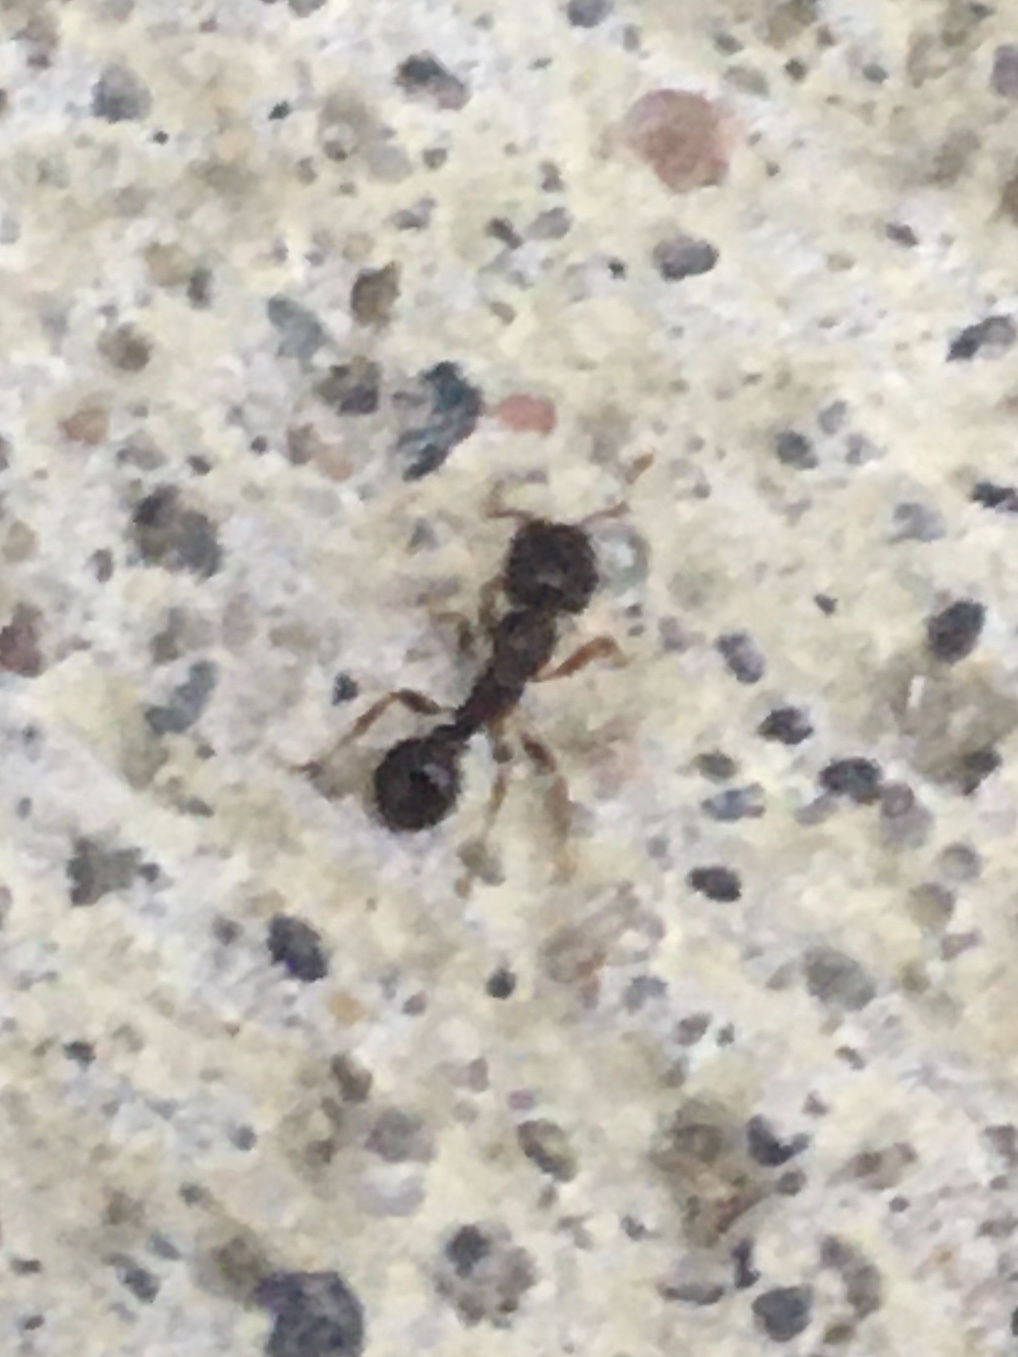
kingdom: Animalia
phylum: Arthropoda
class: Insecta
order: Hymenoptera
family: Formicidae
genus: Tetramorium
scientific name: Tetramorium immigrans
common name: Pavement ant
